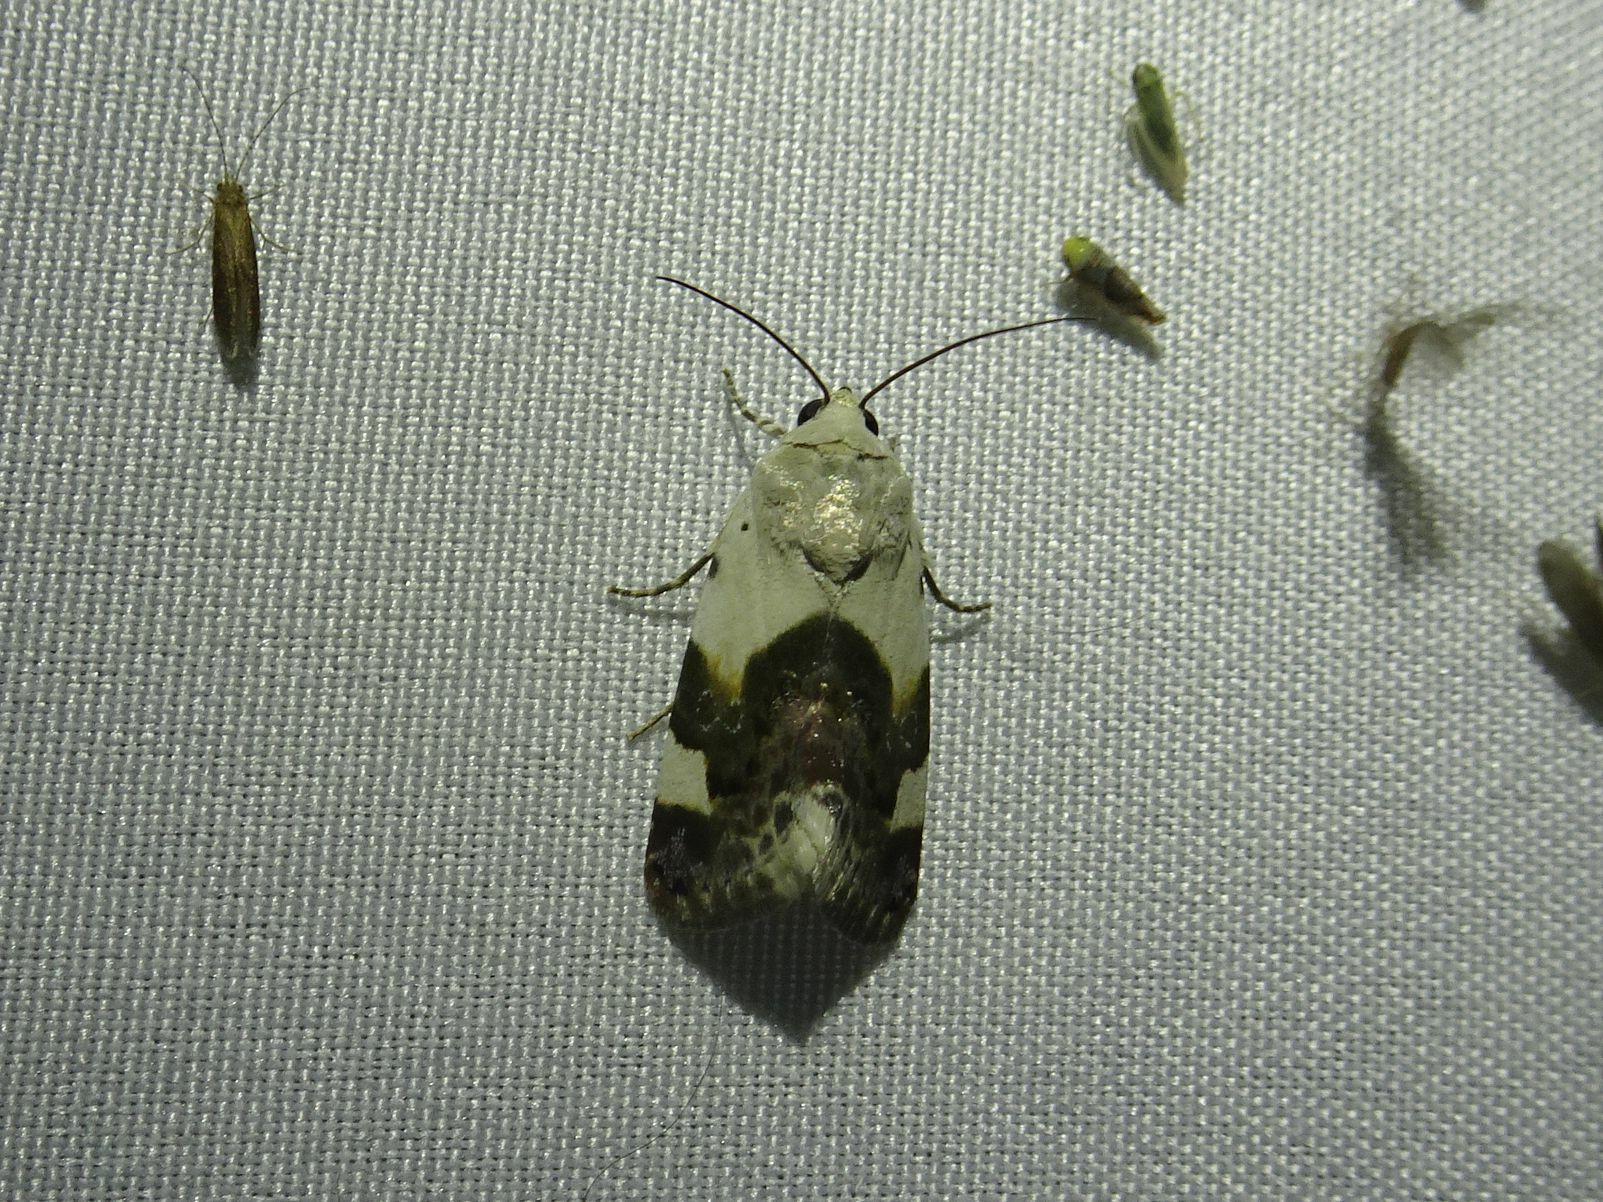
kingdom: Animalia
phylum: Arthropoda
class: Insecta
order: Lepidoptera
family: Noctuidae
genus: Acontia
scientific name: Acontia lucida
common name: Pale shoulder
